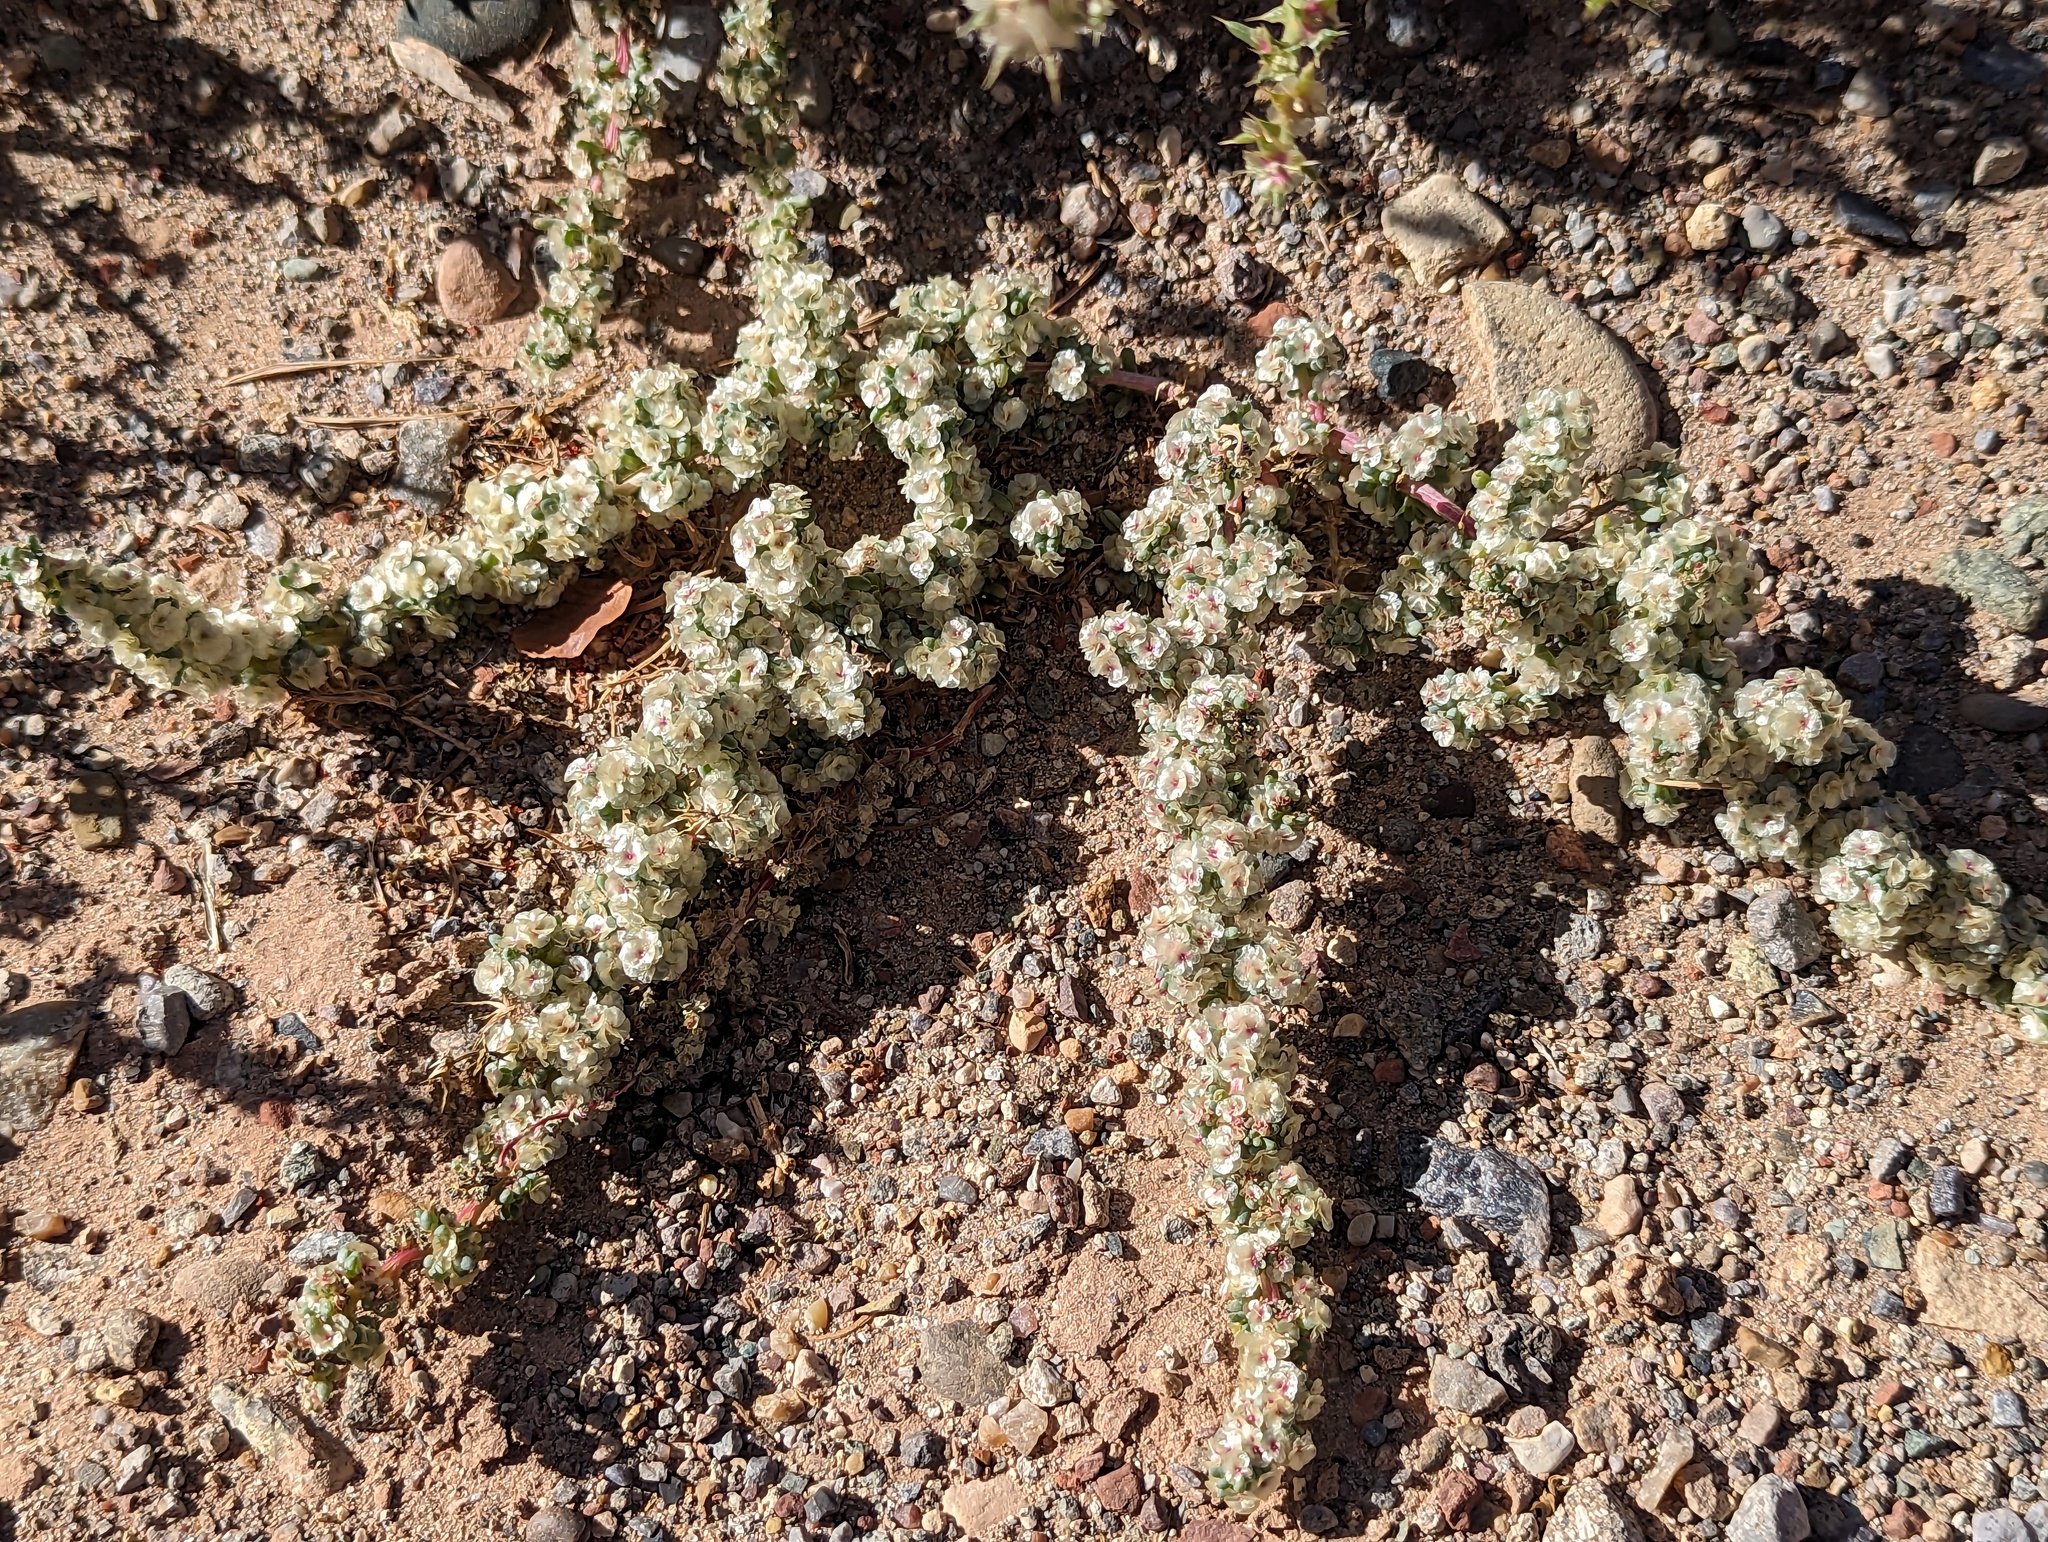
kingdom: Plantae
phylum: Tracheophyta
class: Magnoliopsida
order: Caryophyllales
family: Amaranthaceae
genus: Halogeton
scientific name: Halogeton glomeratus
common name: Saltlover
